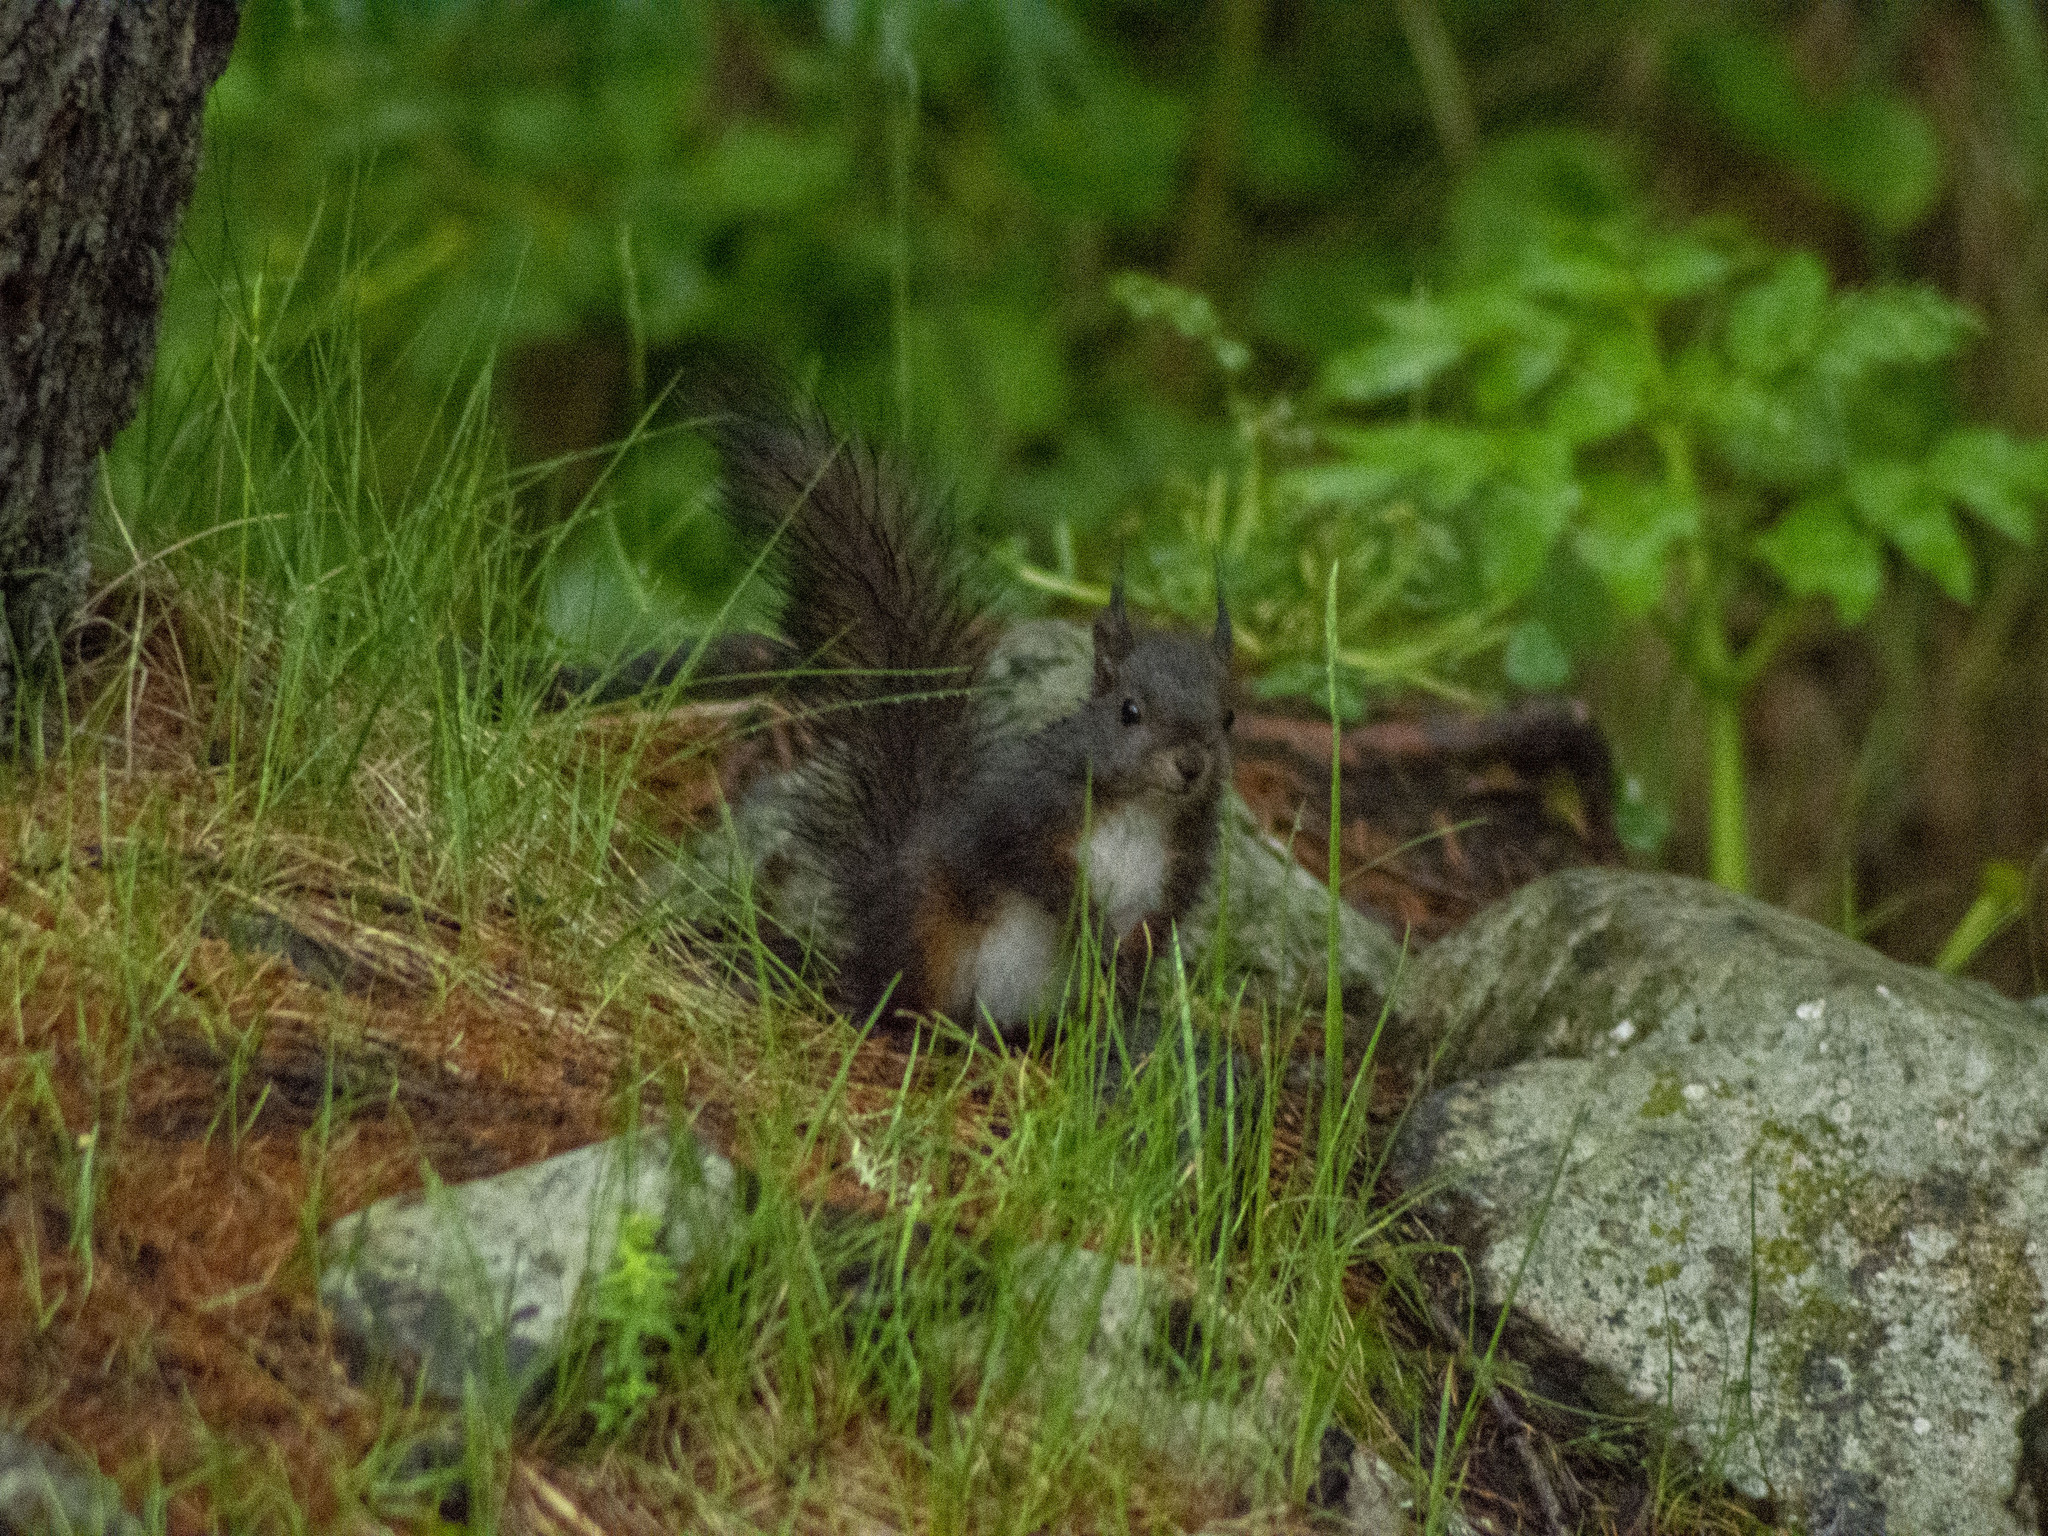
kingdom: Animalia
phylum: Chordata
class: Mammalia
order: Rodentia
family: Sciuridae
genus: Sciurus
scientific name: Sciurus vulgaris
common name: Eurasian red squirrel
